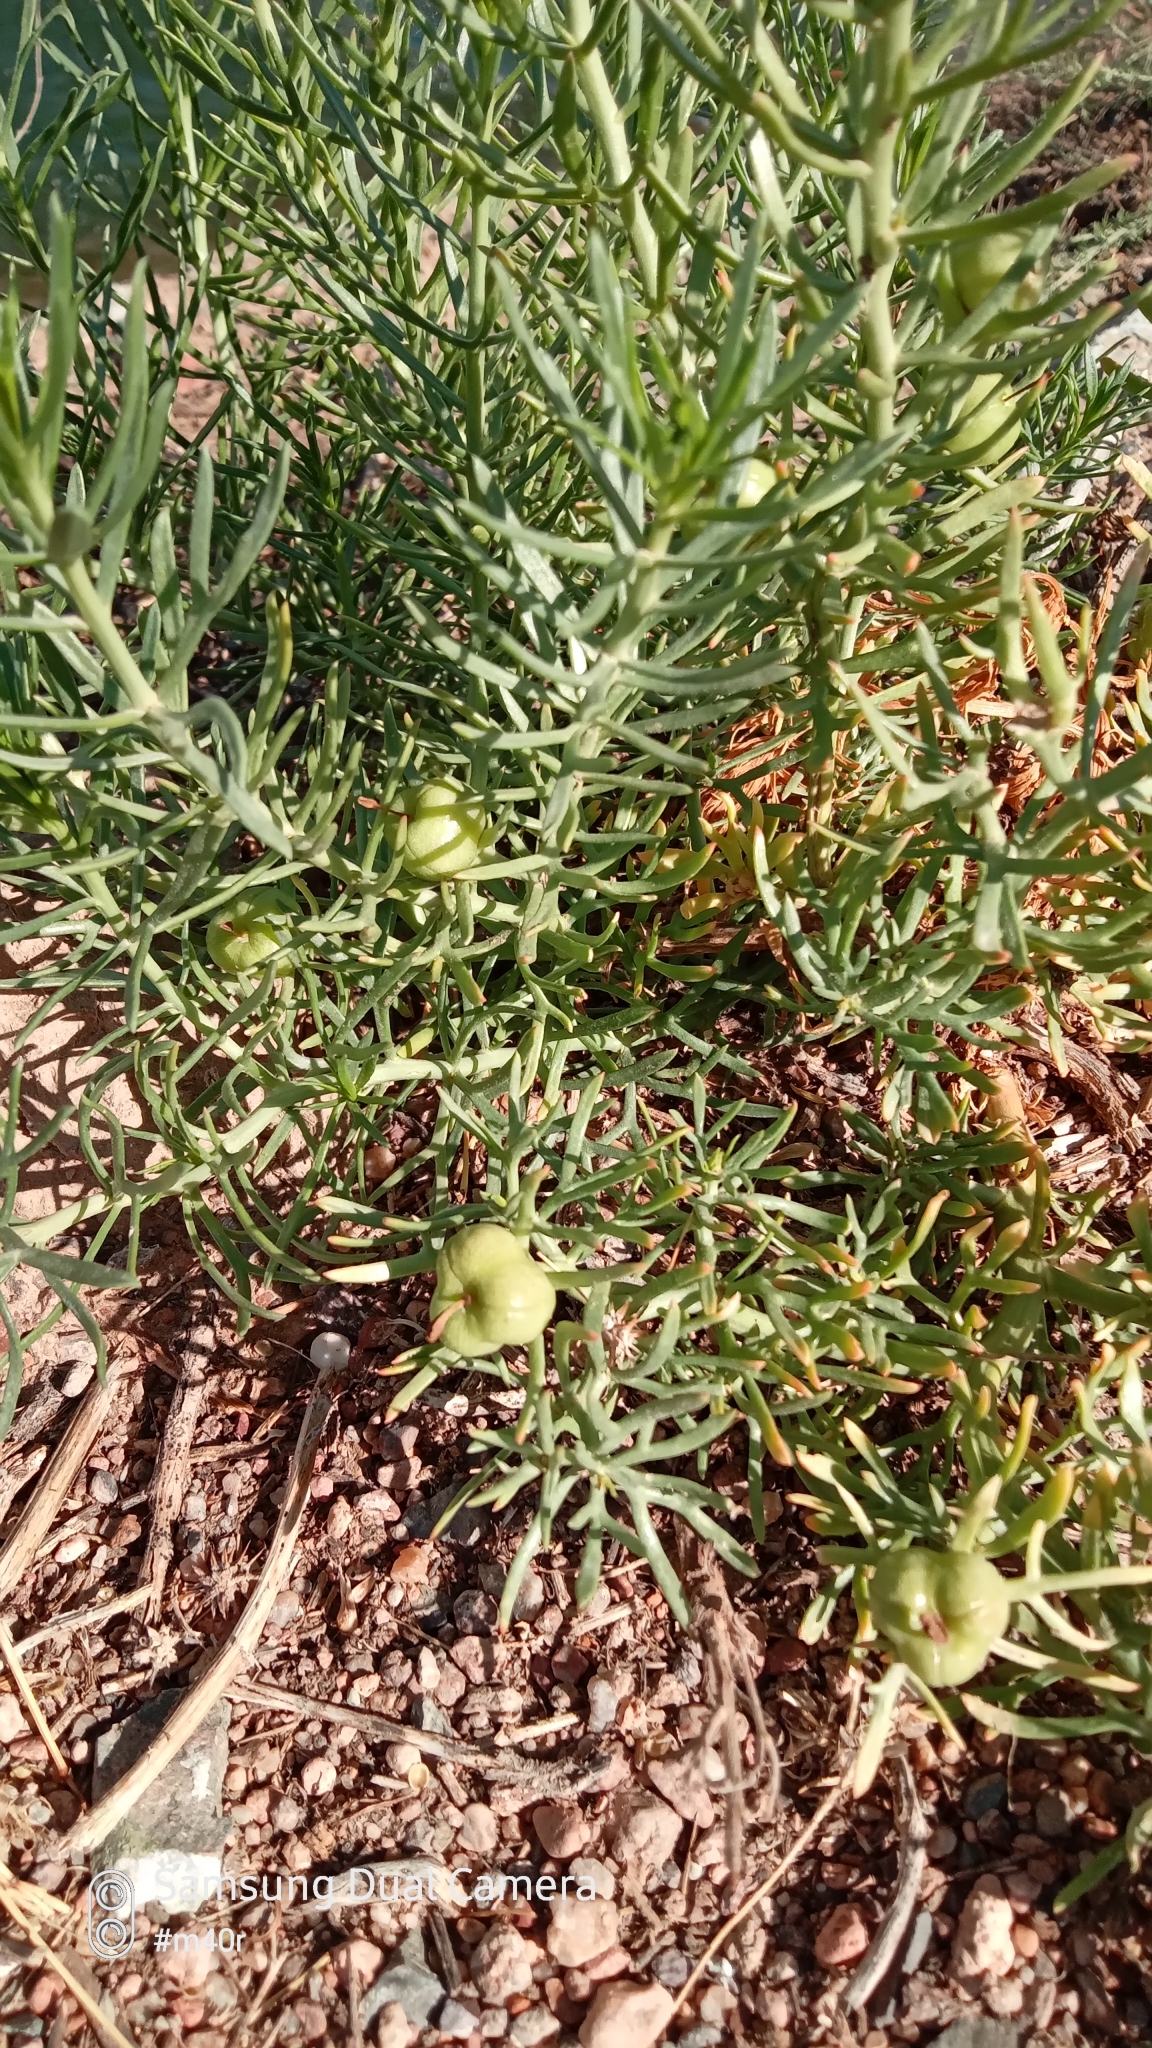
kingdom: Plantae
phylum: Tracheophyta
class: Magnoliopsida
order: Sapindales
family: Tetradiclidaceae
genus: Peganum
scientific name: Peganum harmala
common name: Harmal peganum
